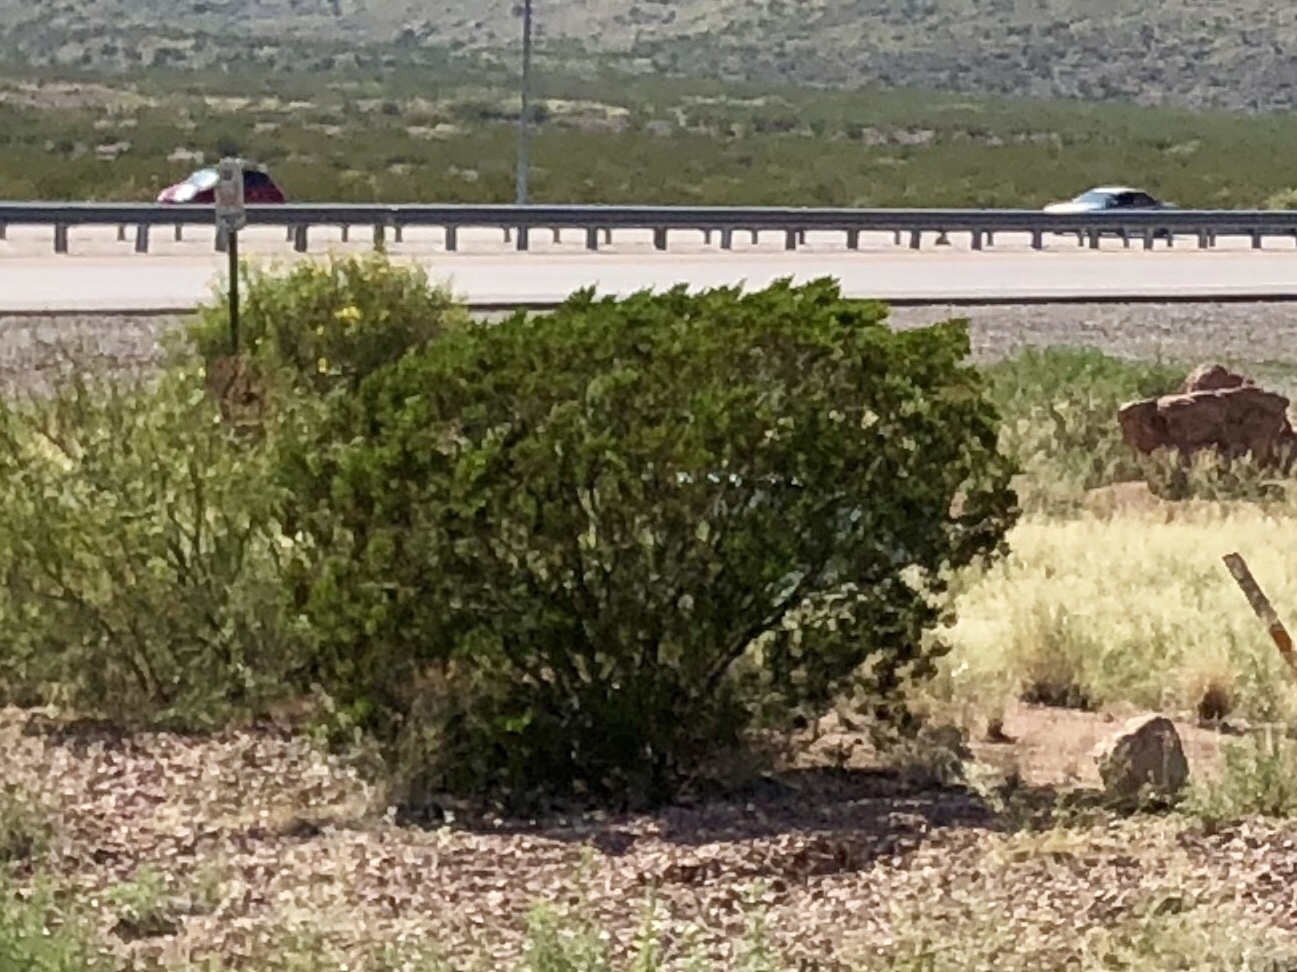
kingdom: Plantae
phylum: Tracheophyta
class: Magnoliopsida
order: Zygophyllales
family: Zygophyllaceae
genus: Larrea
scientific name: Larrea tridentata
